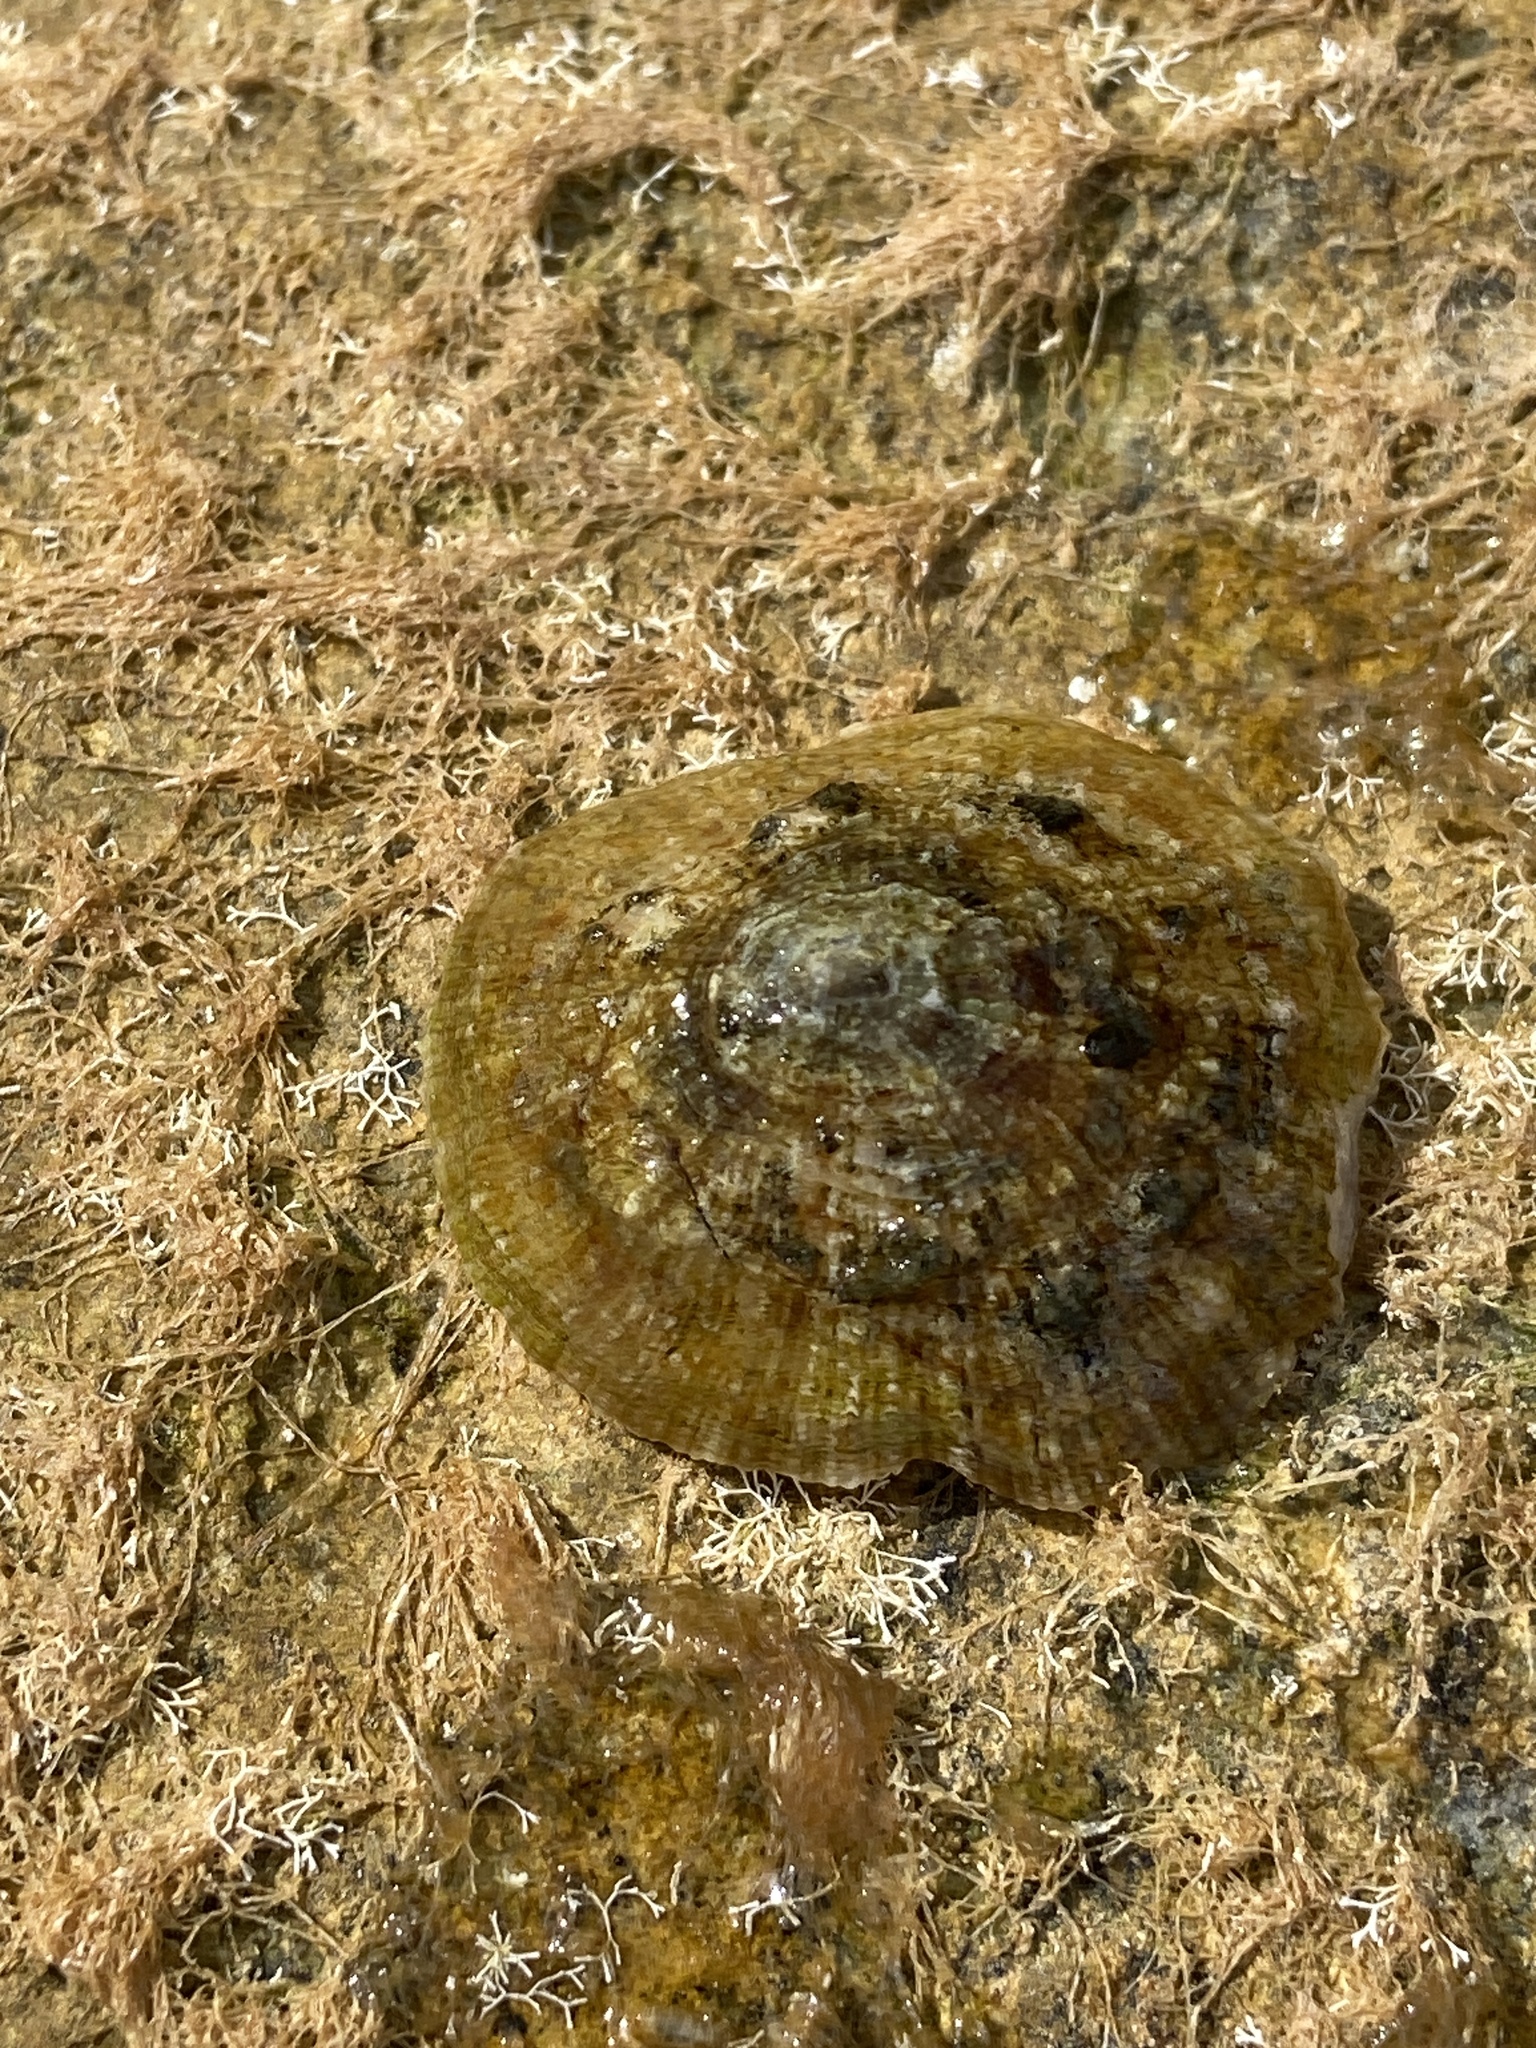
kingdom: Animalia
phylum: Mollusca
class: Gastropoda
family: Patellidae
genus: Patella
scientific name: Patella caerulea
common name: Mediterranean limpet
